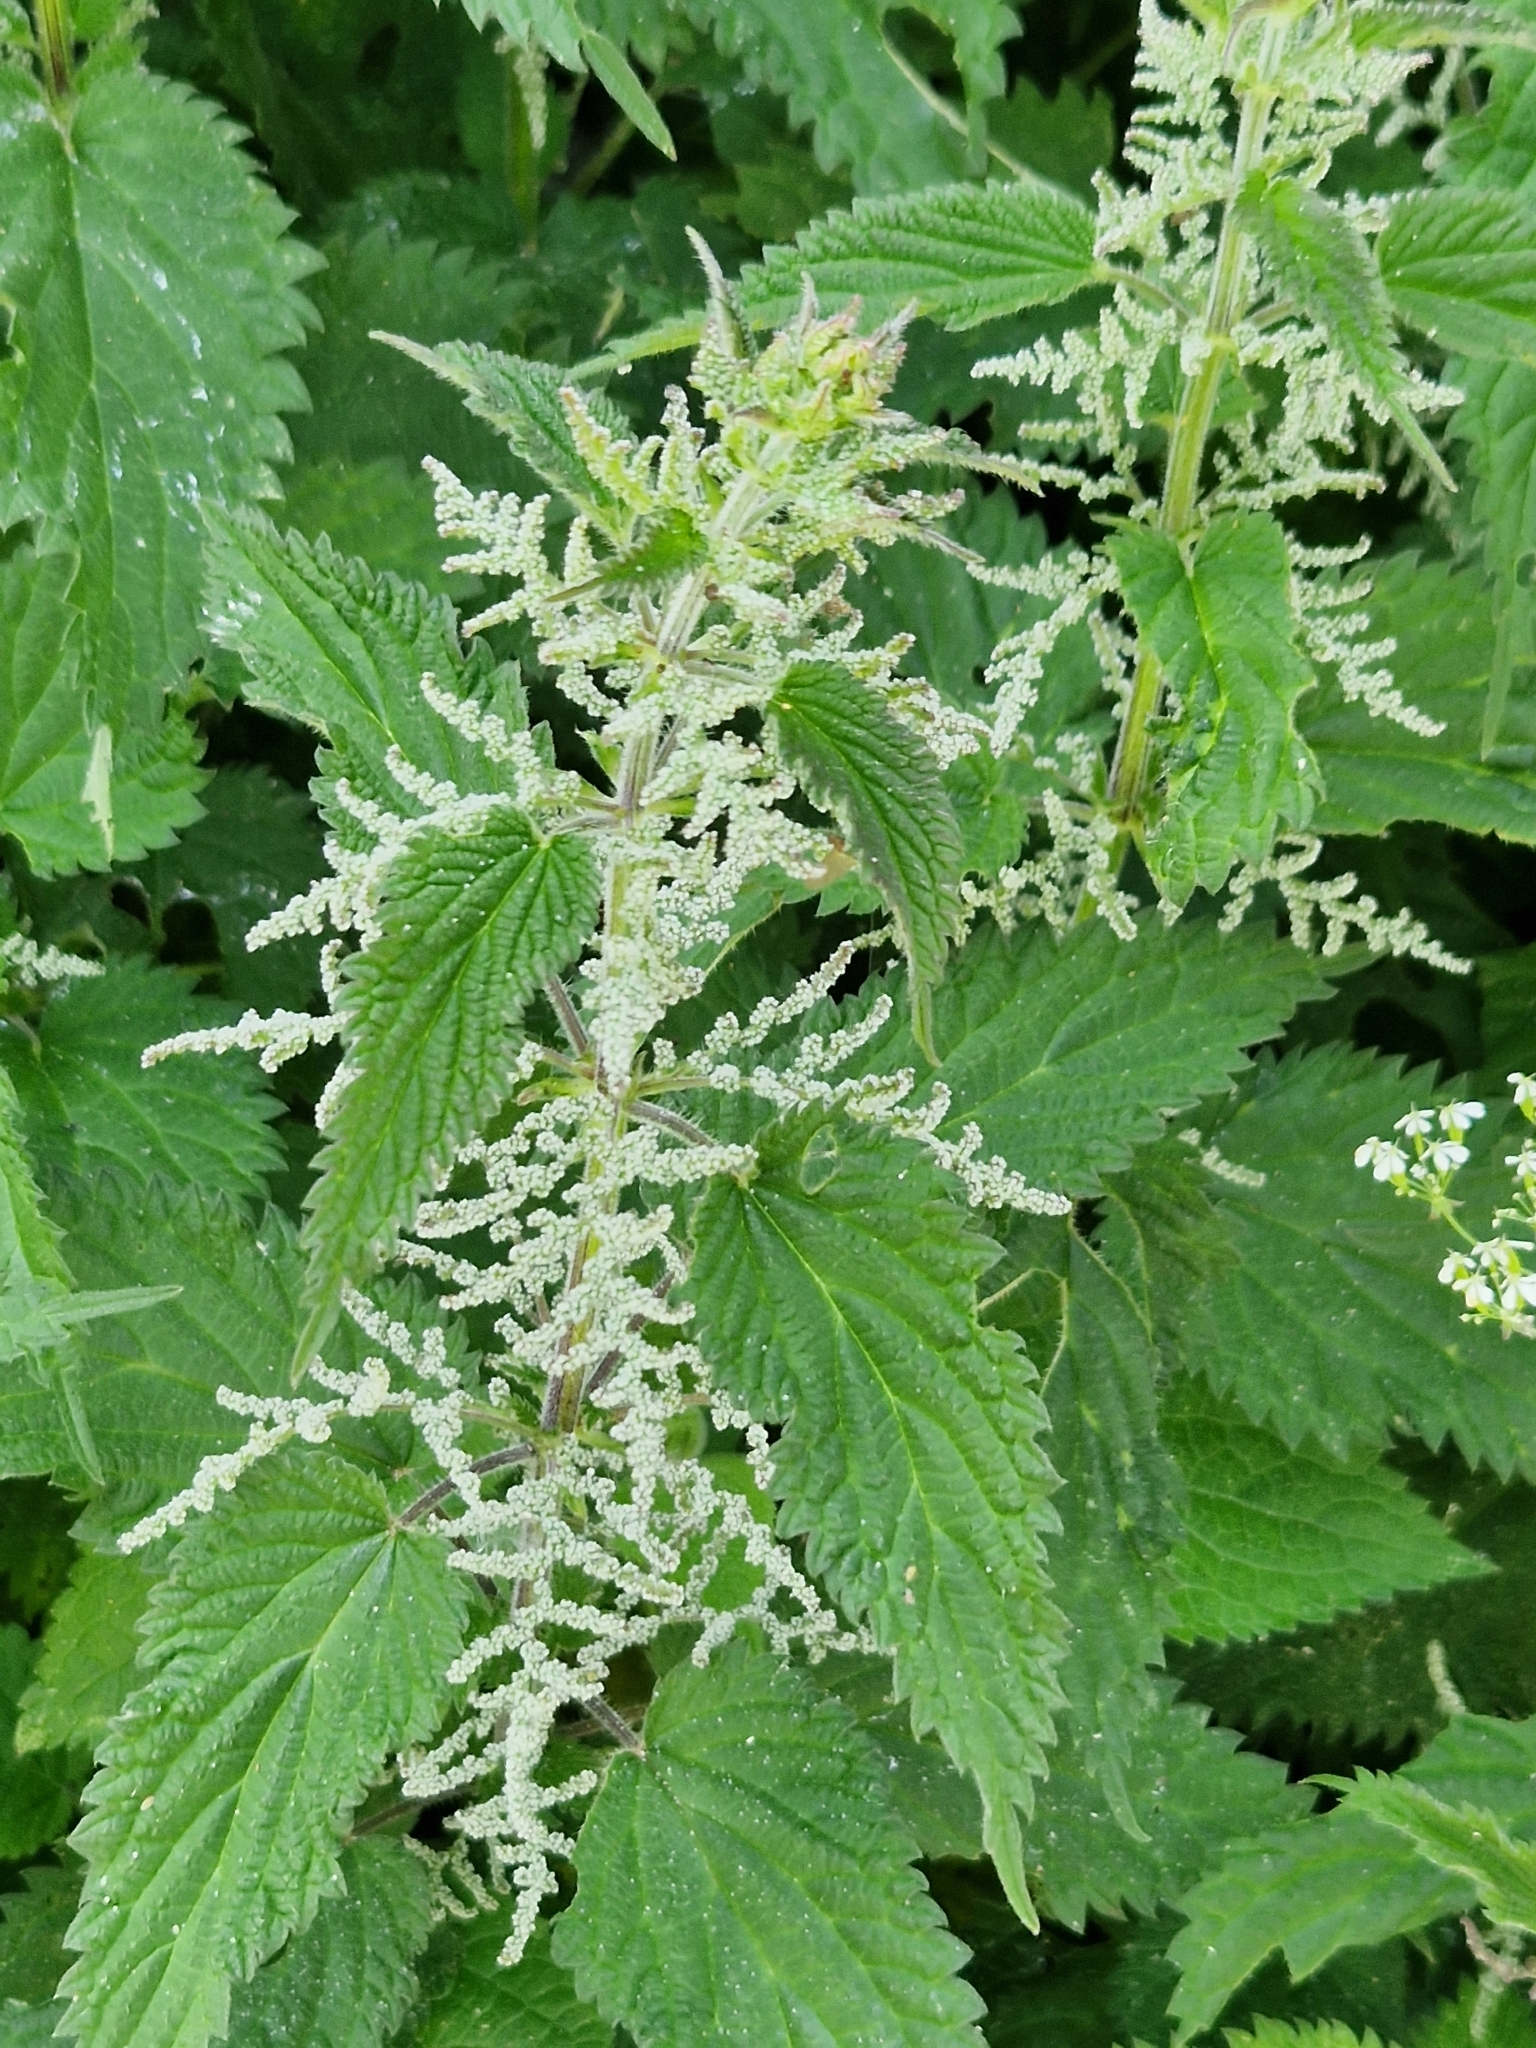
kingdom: Plantae
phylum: Tracheophyta
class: Magnoliopsida
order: Rosales
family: Urticaceae
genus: Urtica
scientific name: Urtica dioica
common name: Common nettle
